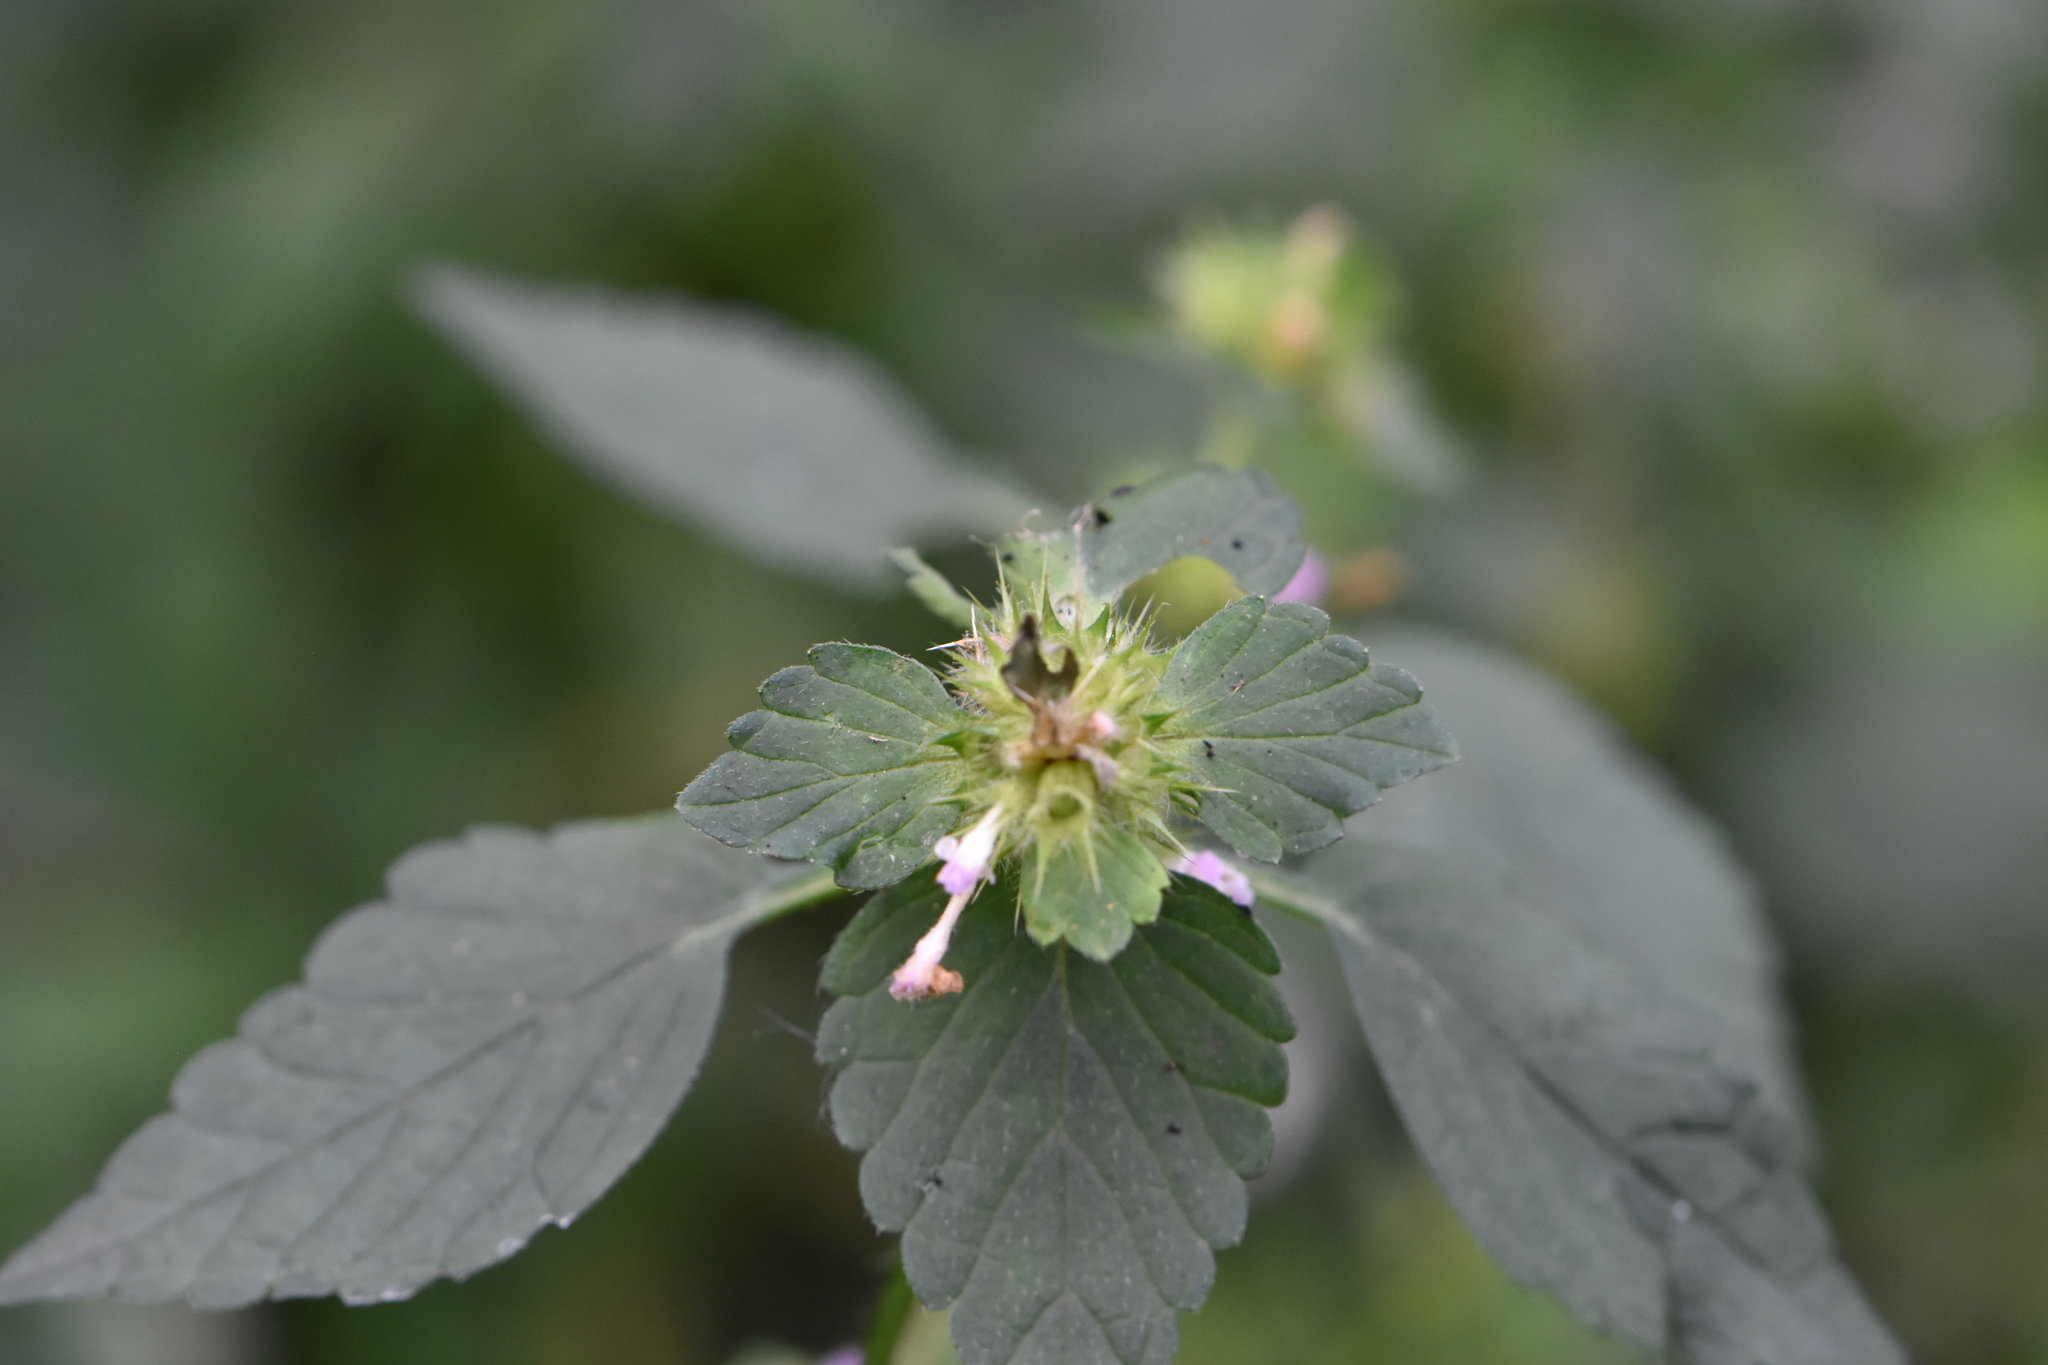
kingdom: Plantae
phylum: Tracheophyta
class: Magnoliopsida
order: Lamiales
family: Lamiaceae
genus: Galeopsis
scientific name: Galeopsis bifida
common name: Bifid hemp-nettle
